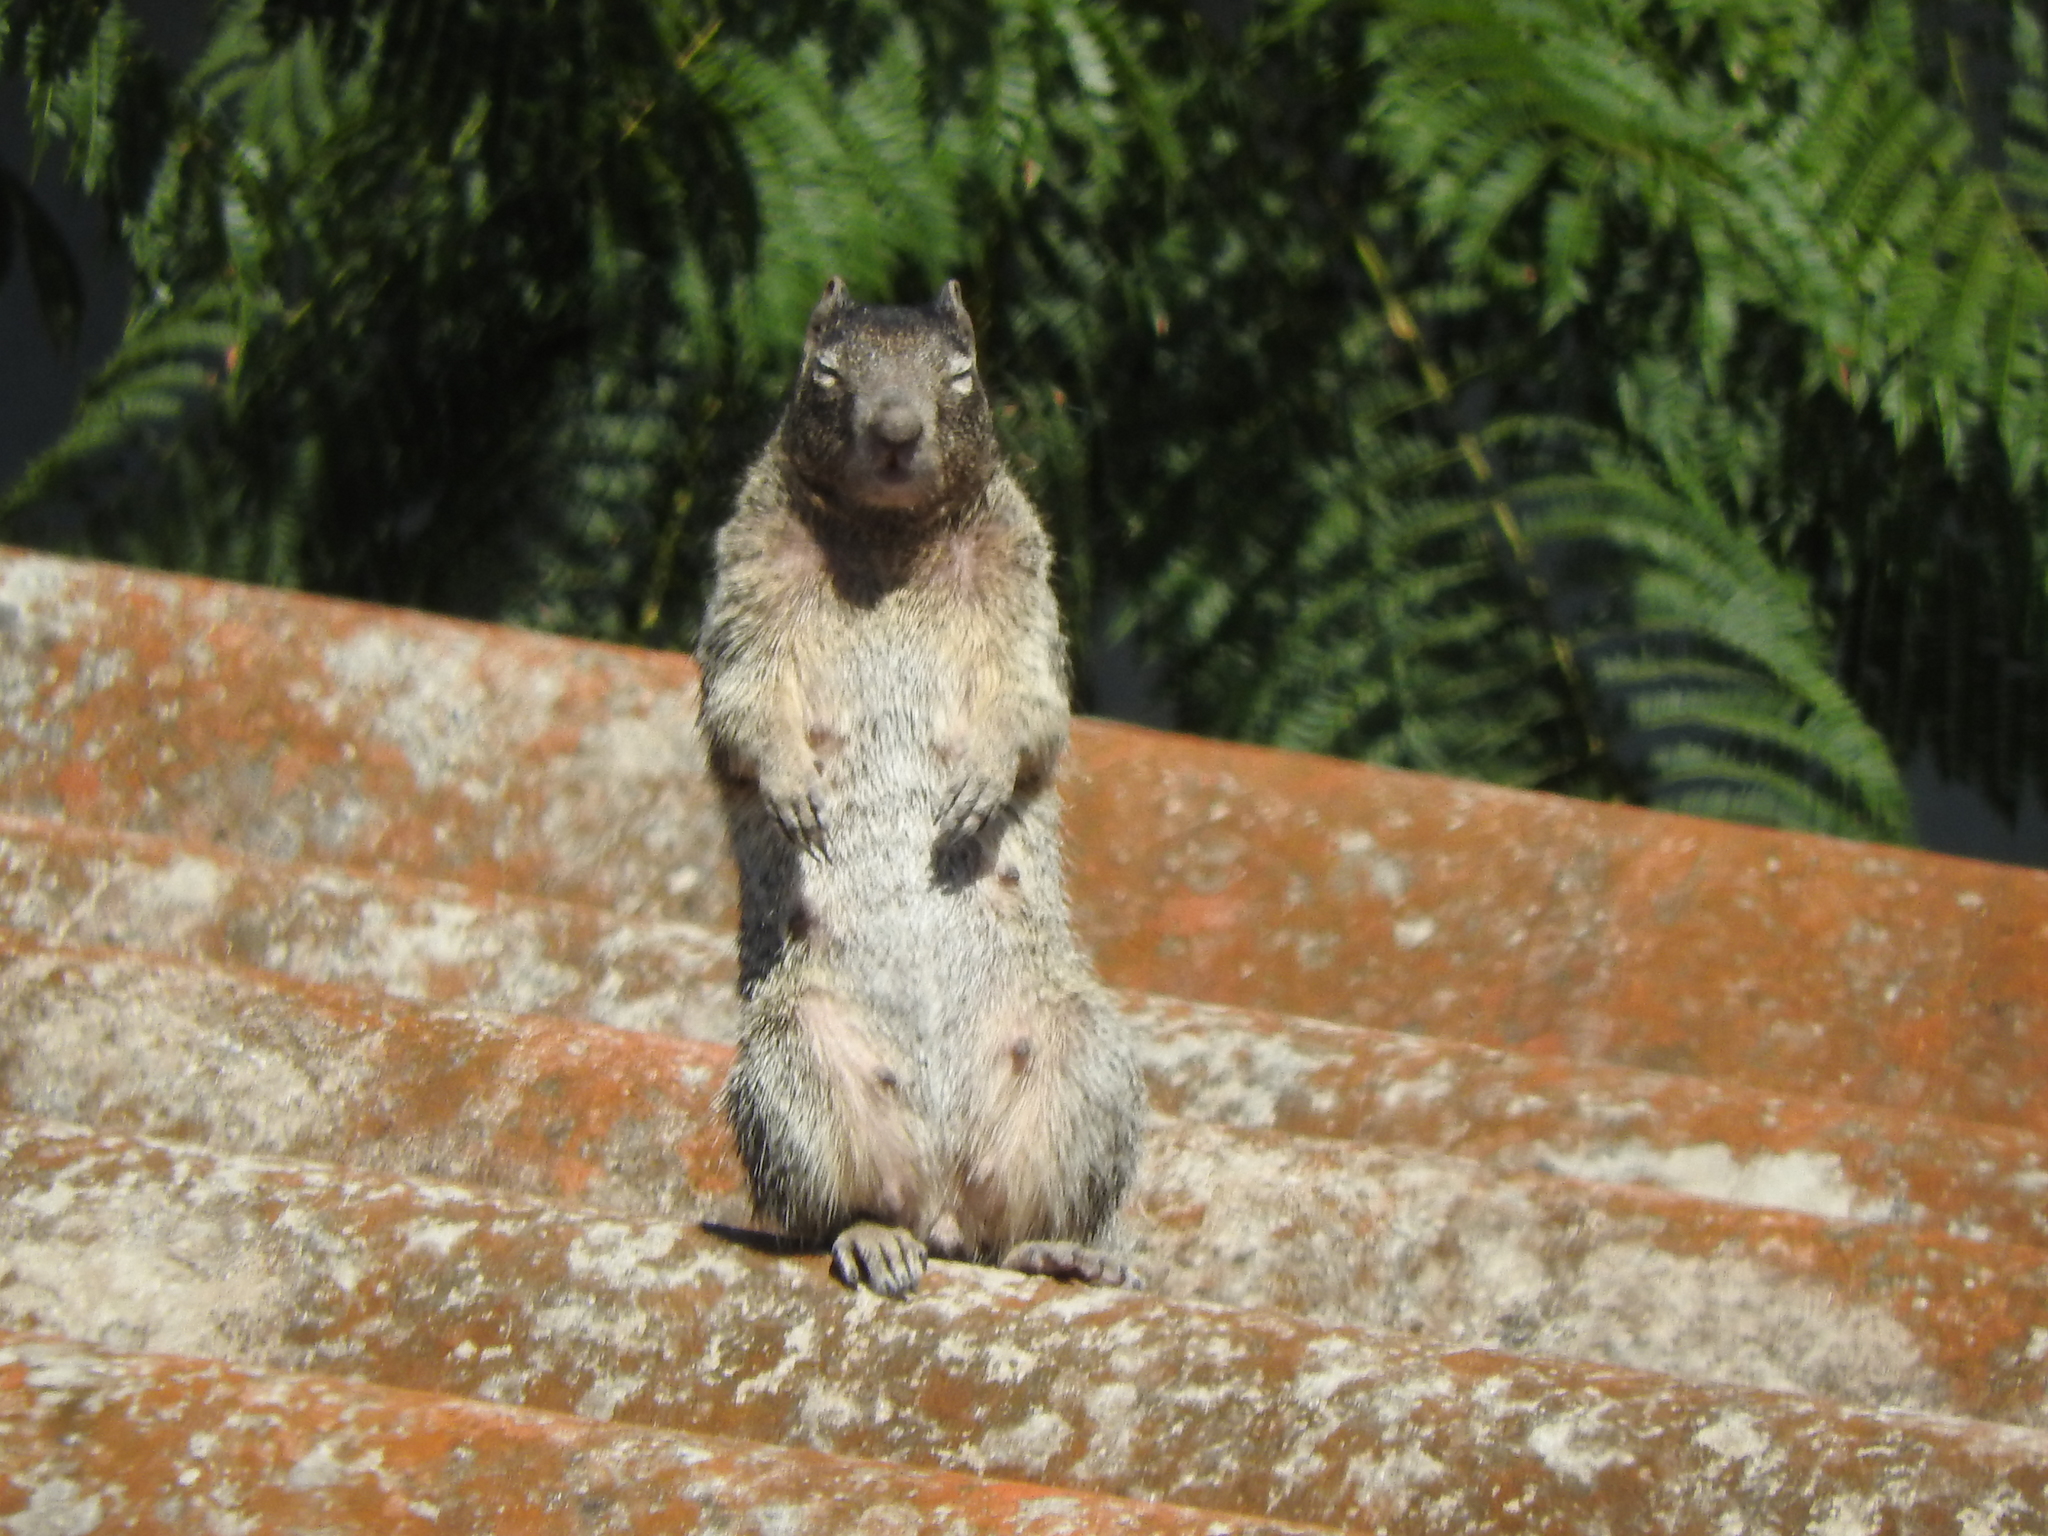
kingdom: Animalia
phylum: Chordata
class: Mammalia
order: Rodentia
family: Sciuridae
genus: Otospermophilus
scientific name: Otospermophilus variegatus
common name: Rock squirrel
